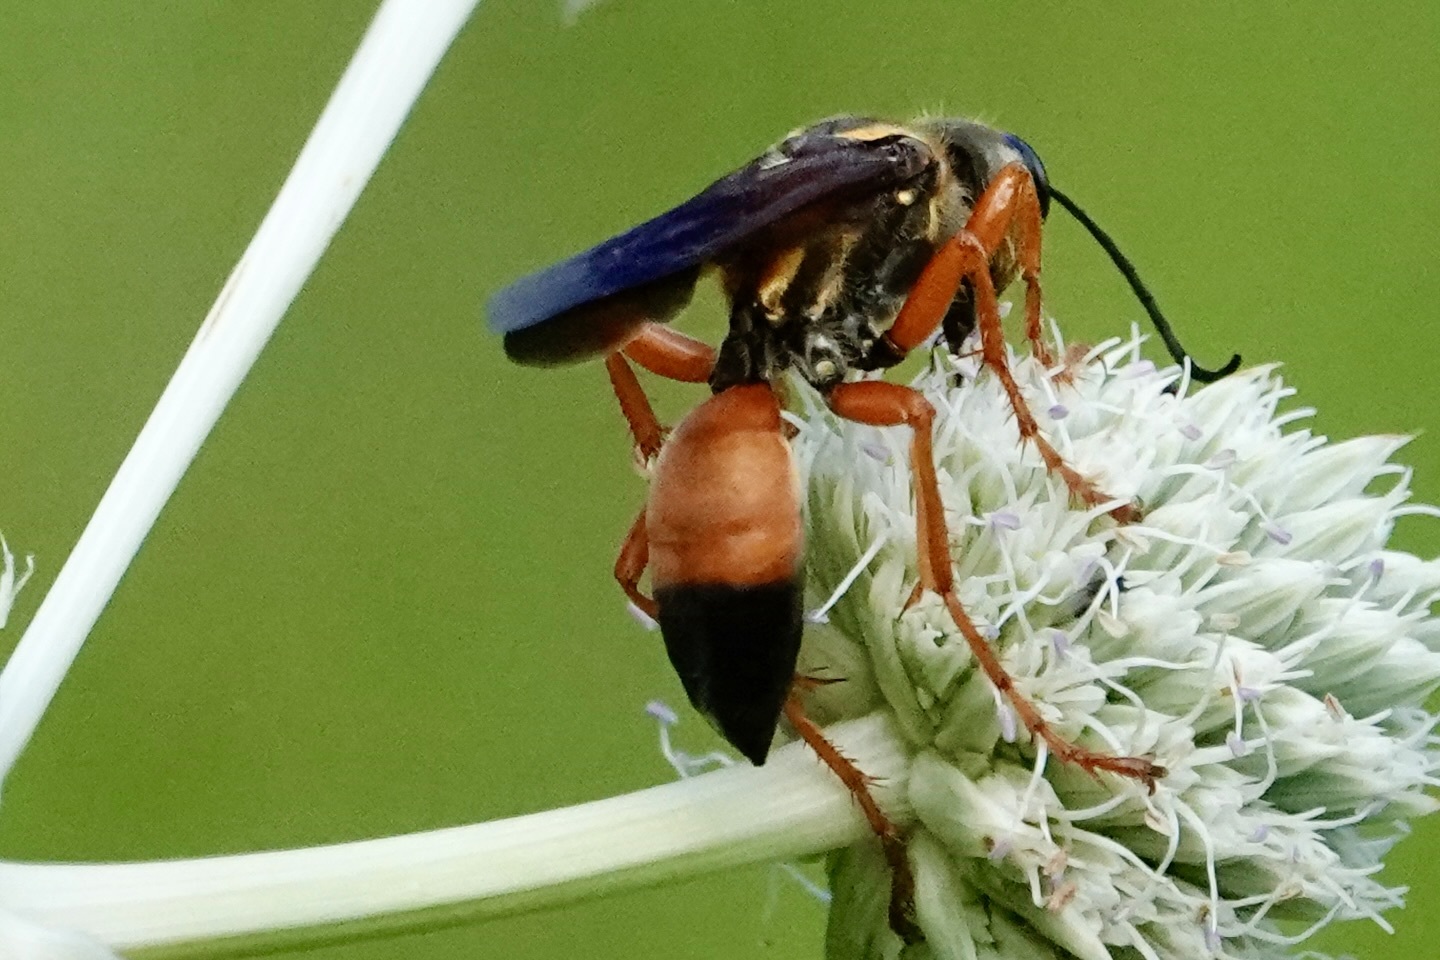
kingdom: Animalia
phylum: Arthropoda
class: Insecta
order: Hymenoptera
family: Sphecidae
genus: Sphex
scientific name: Sphex ichneumoneus
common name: Great golden digger wasp
